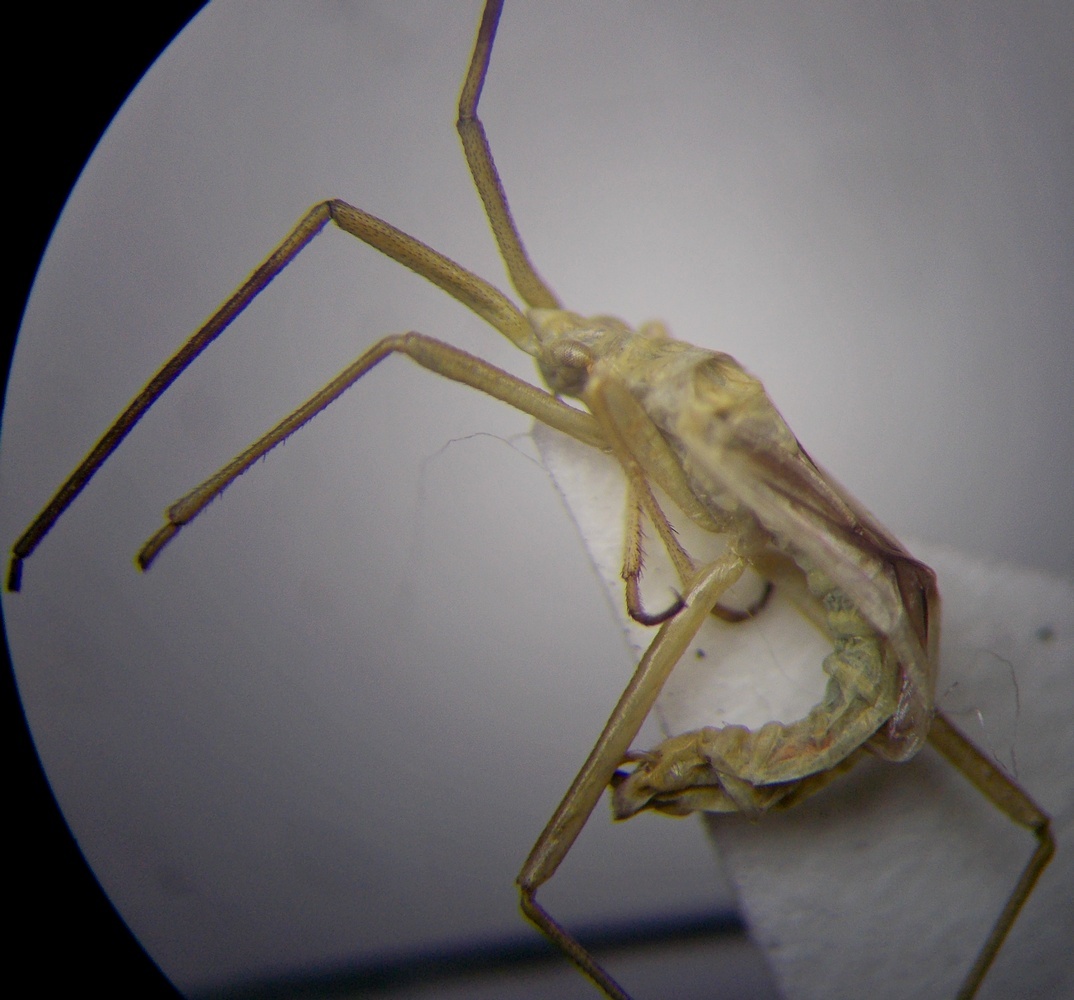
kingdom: Animalia
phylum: Arthropoda
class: Insecta
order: Hemiptera
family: Miridae
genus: Chorosomella
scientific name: Chorosomella jakowleffi
